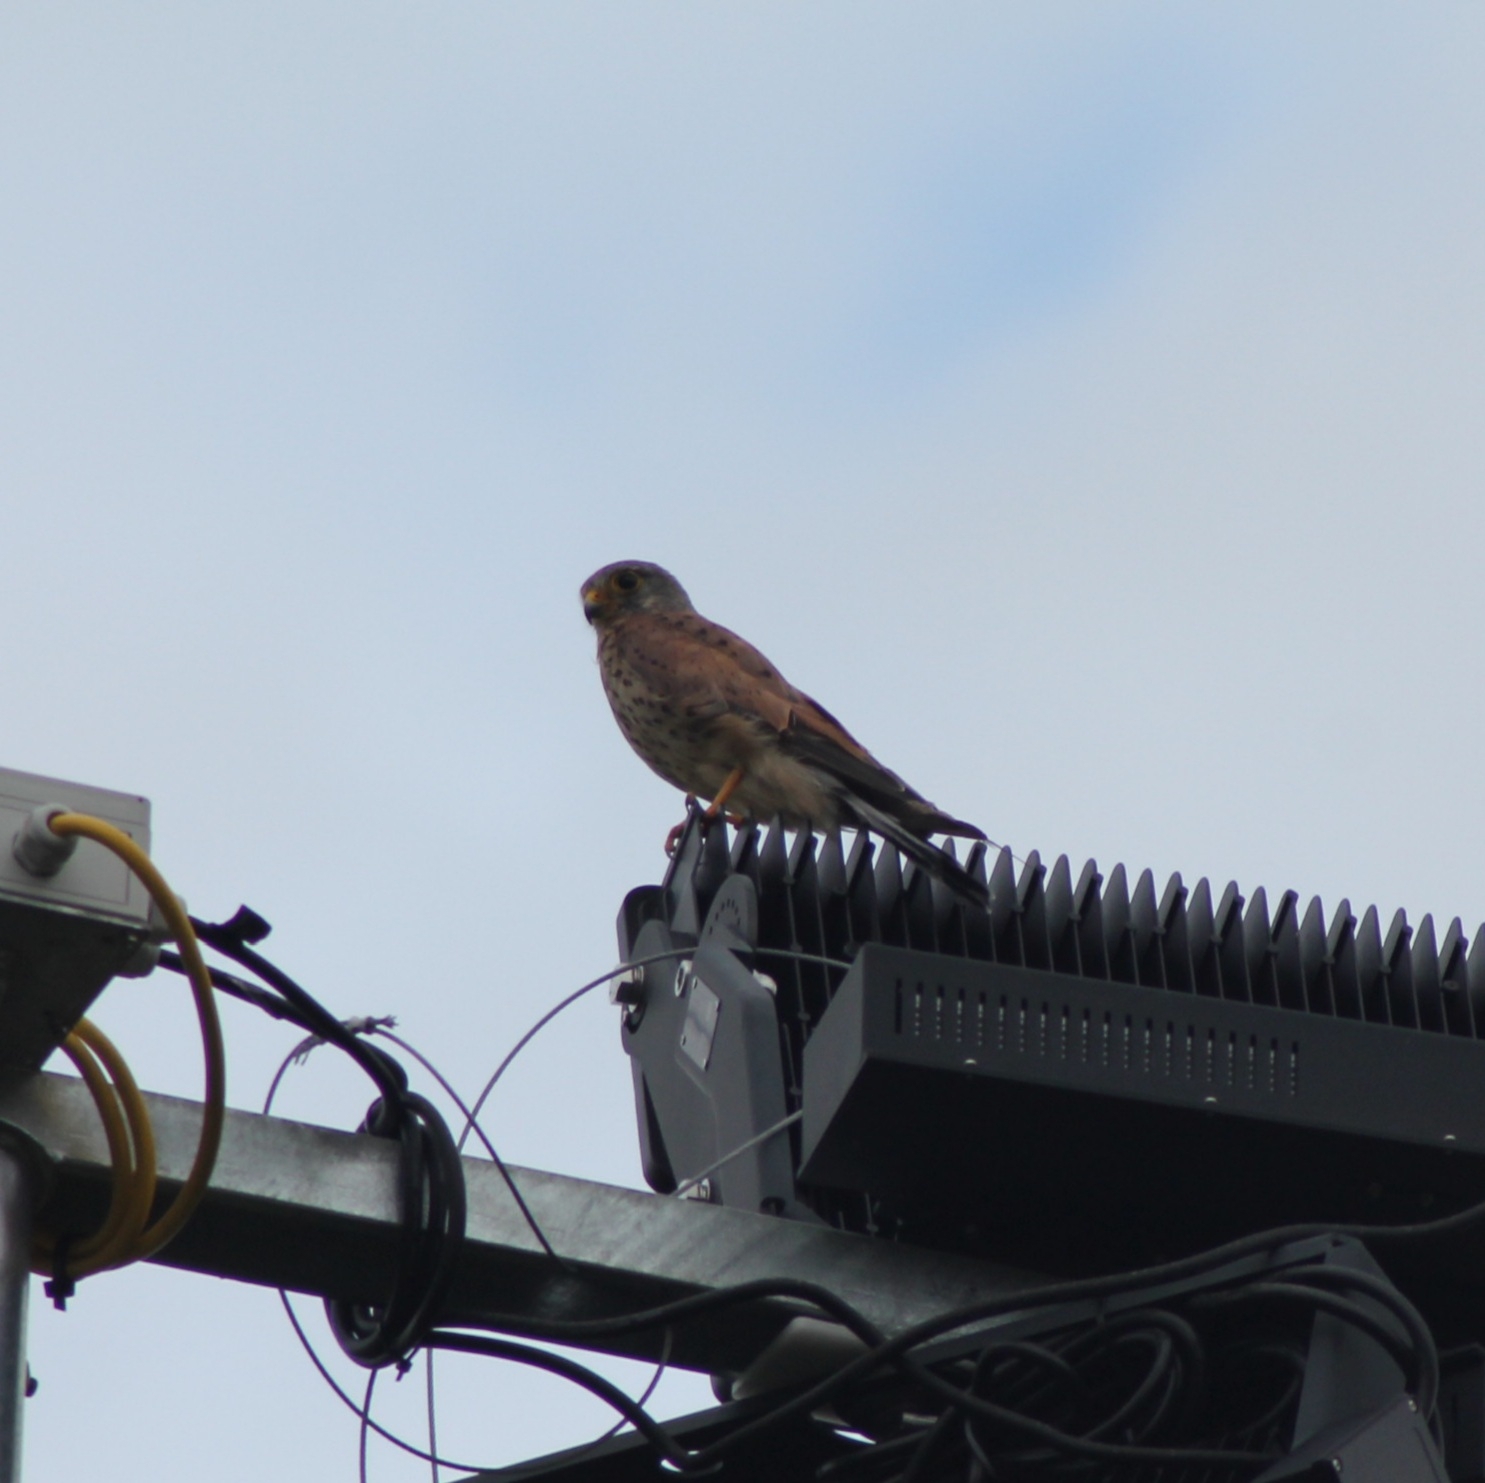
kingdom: Animalia
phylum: Chordata
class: Aves
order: Falconiformes
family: Falconidae
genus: Falco
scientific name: Falco tinnunculus
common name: Common kestrel
